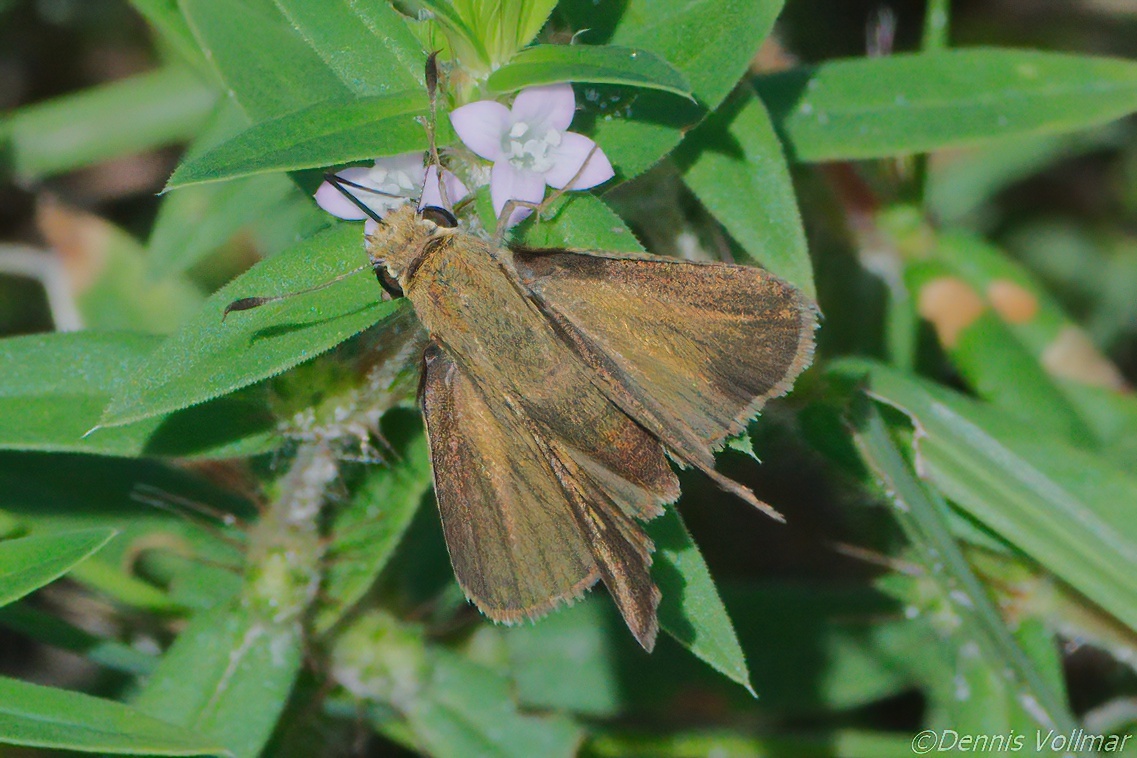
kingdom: Animalia
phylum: Arthropoda
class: Insecta
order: Lepidoptera
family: Hesperiidae
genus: Polites
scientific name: Polites vibex
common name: Whirlabout
